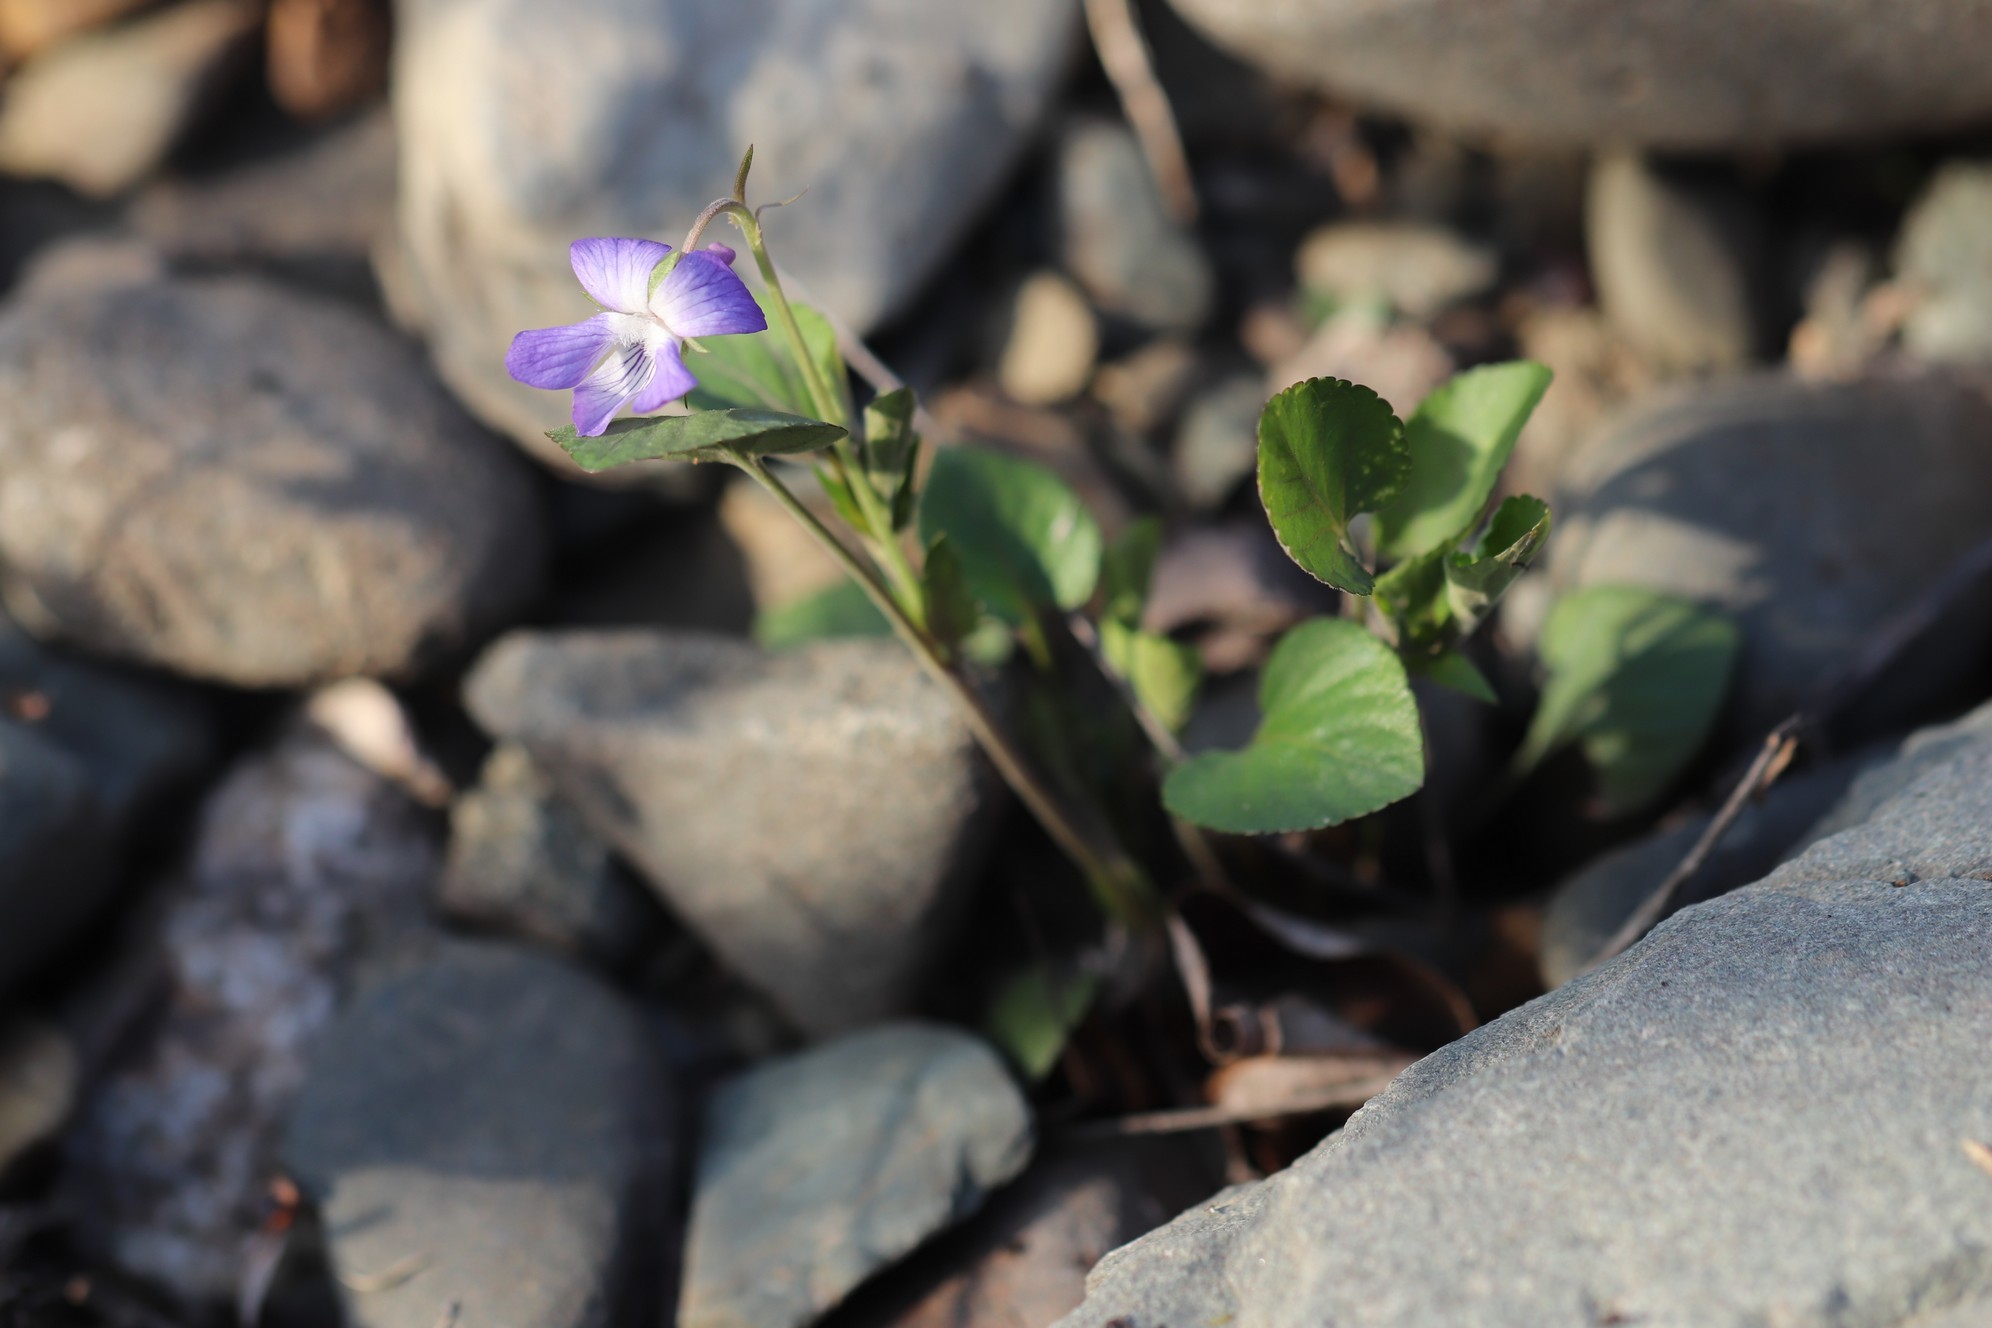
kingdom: Plantae
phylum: Tracheophyta
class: Magnoliopsida
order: Malpighiales
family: Violaceae
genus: Viola
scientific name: Viola rupestris
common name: Teesdale violet
